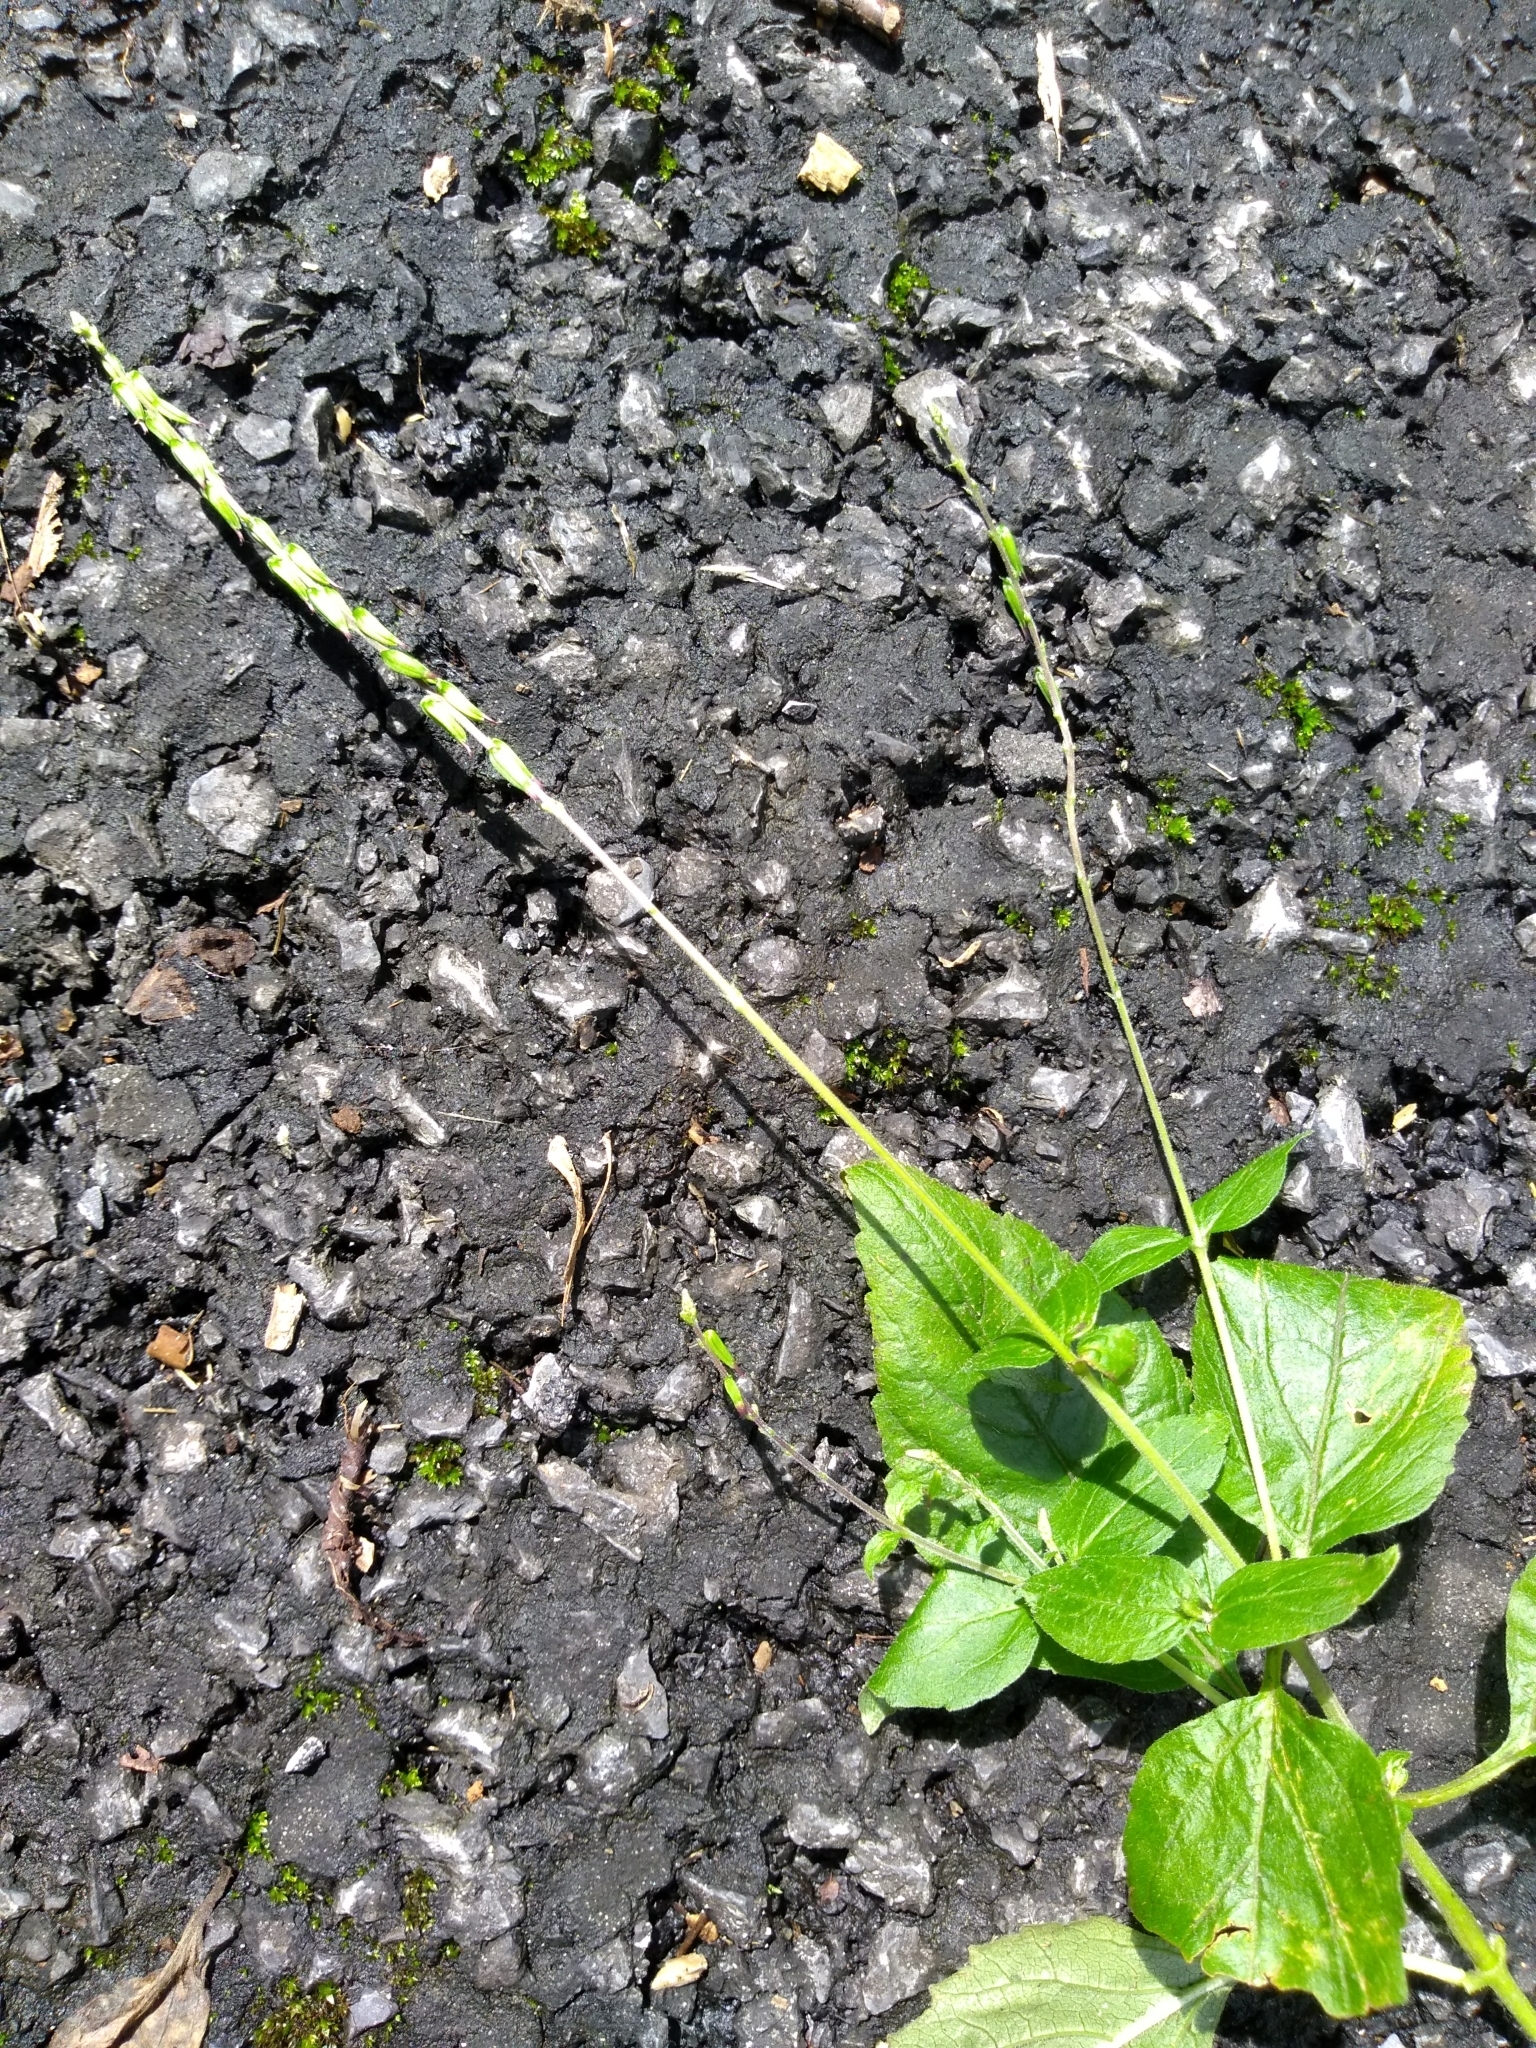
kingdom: Plantae
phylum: Tracheophyta
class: Magnoliopsida
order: Lamiales
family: Phrymaceae
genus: Phryma
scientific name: Phryma leptostachya
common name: American lopseed
